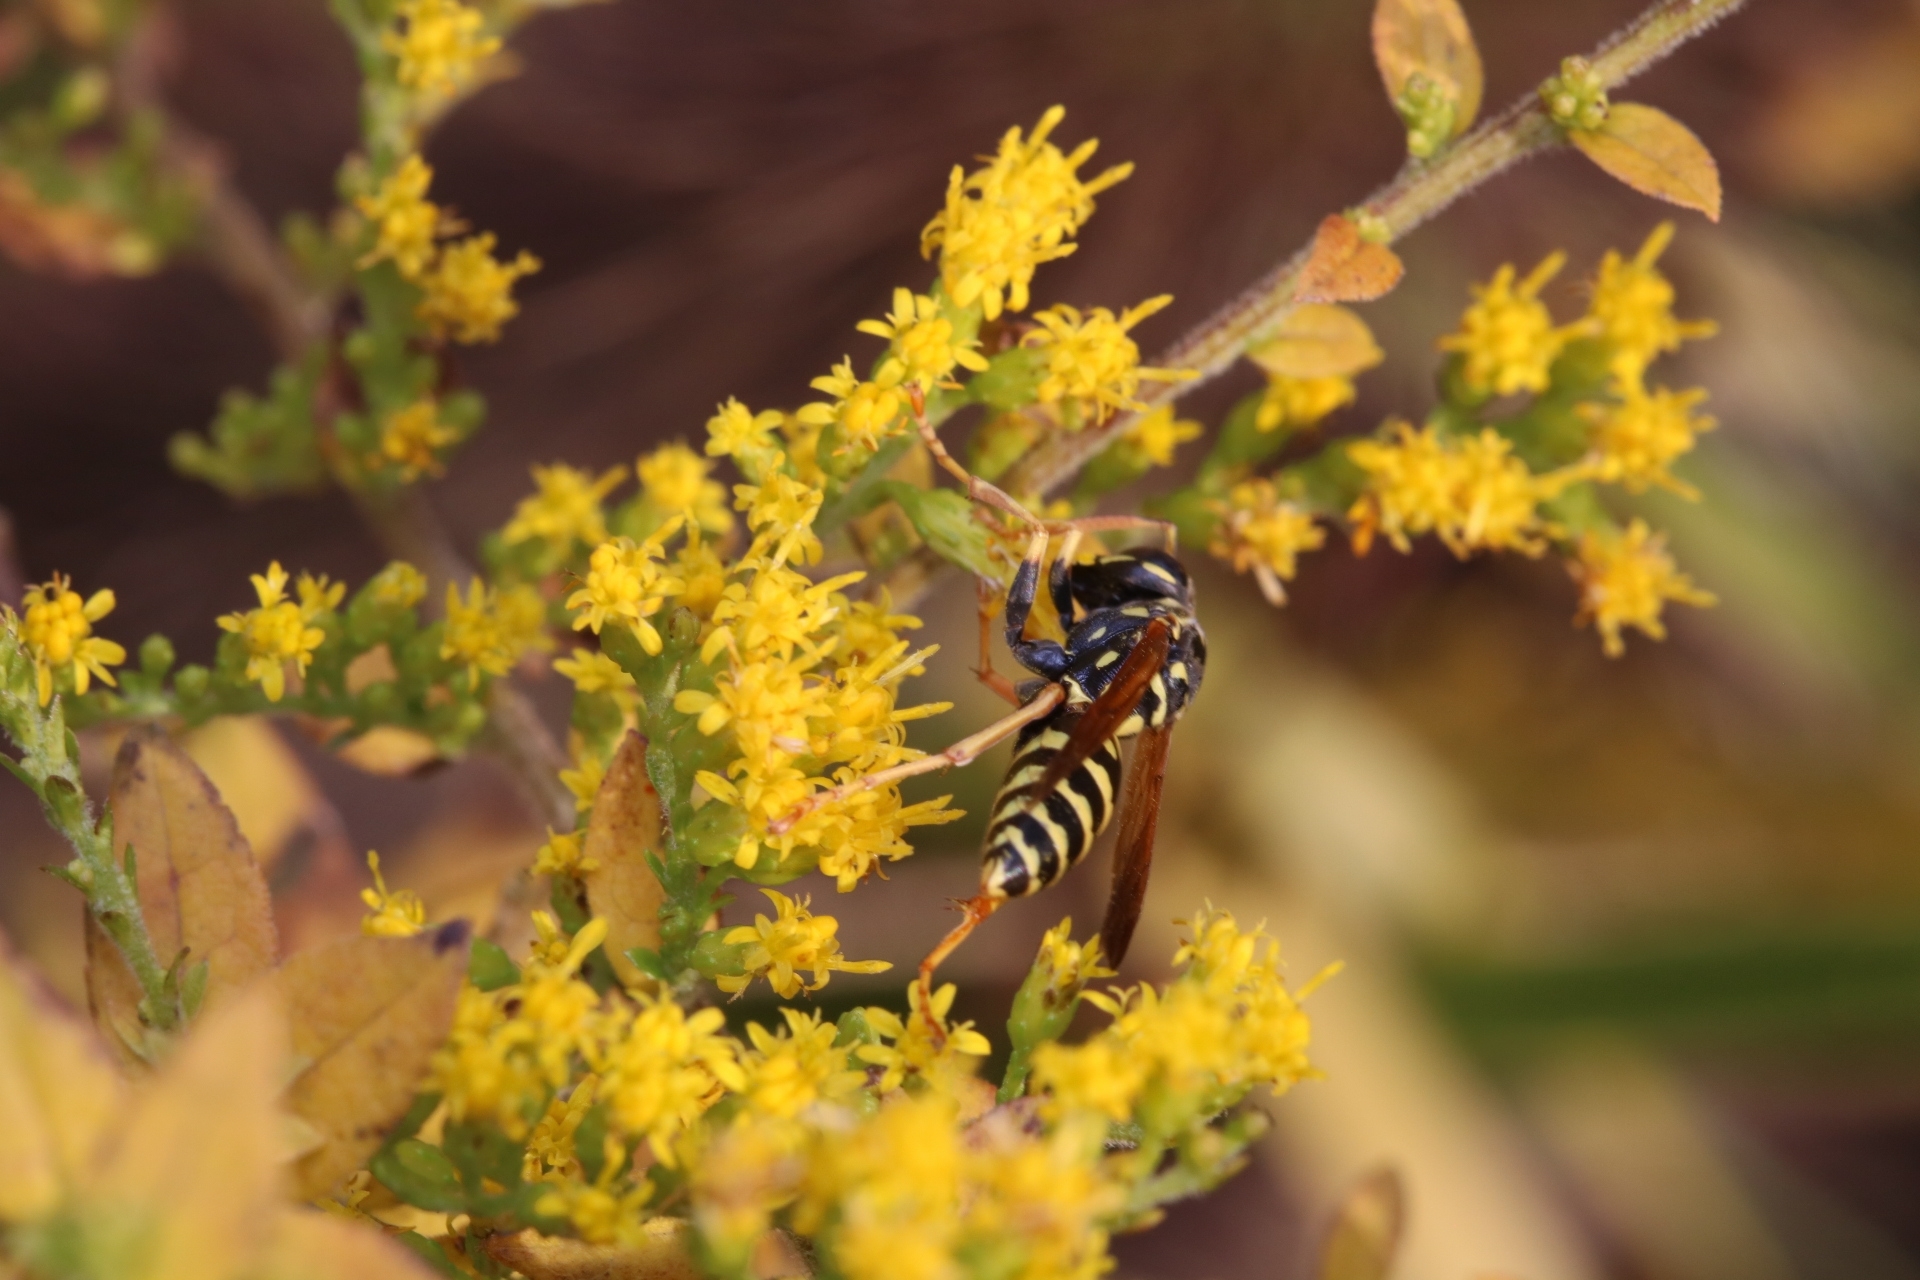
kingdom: Animalia
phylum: Arthropoda
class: Insecta
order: Hymenoptera
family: Eumenidae
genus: Polistes
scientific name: Polistes dominula
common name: Paper wasp
